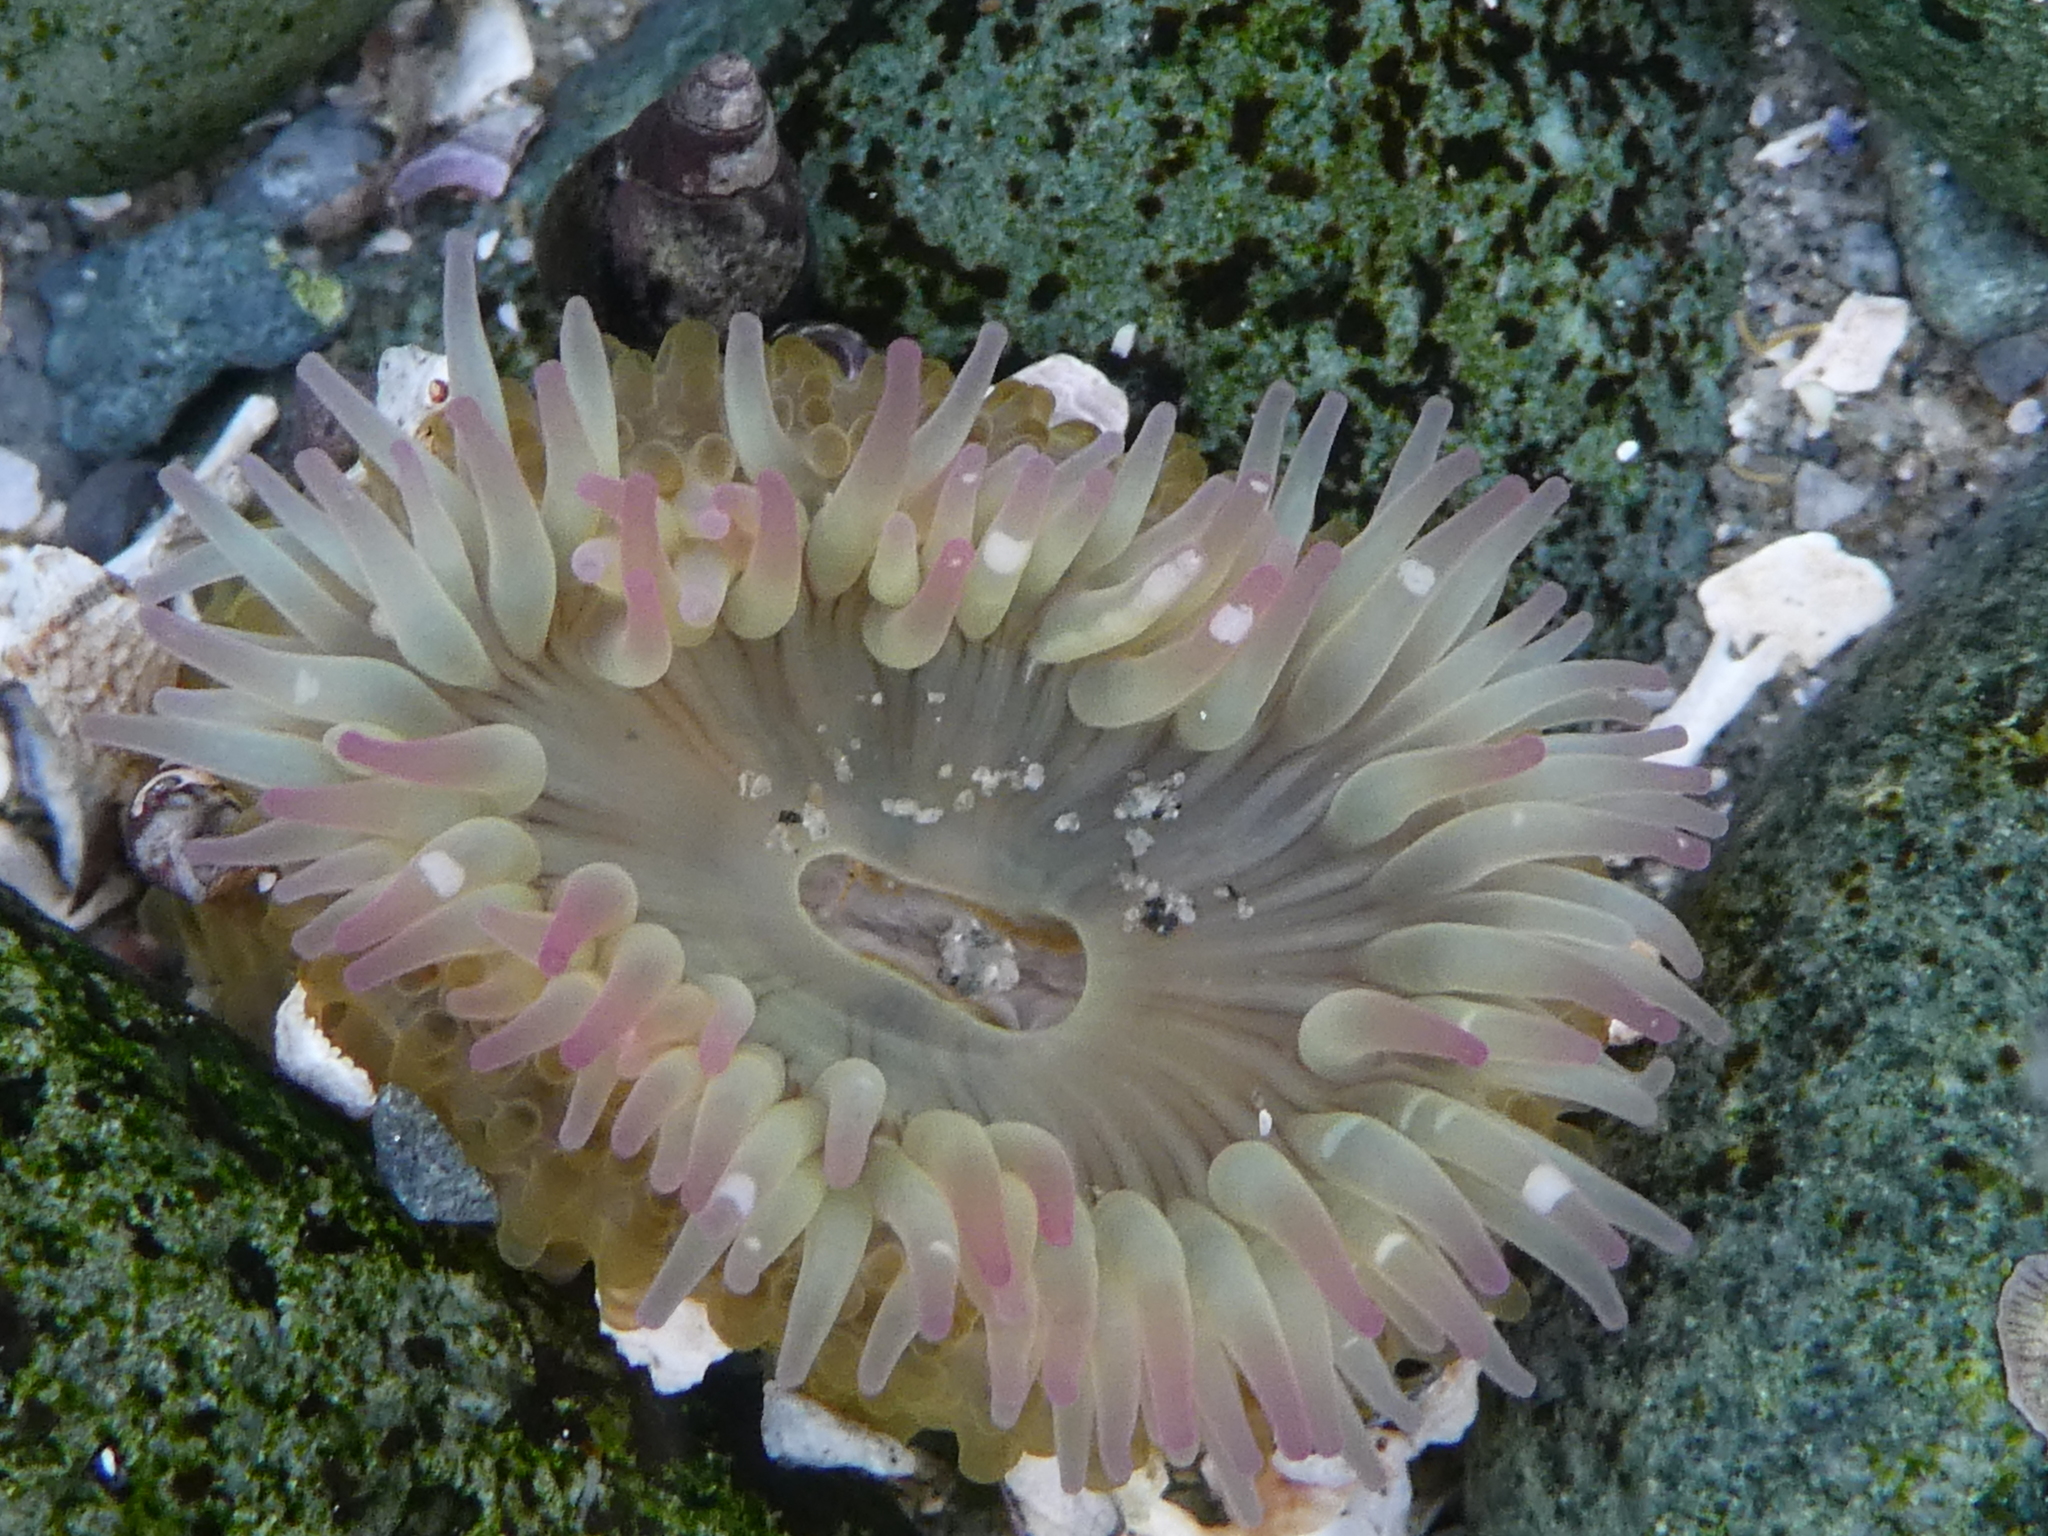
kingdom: Animalia
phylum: Cnidaria
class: Anthozoa
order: Actiniaria
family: Actiniidae
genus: Anthopleura
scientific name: Anthopleura elegantissima
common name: Clonal anemone
